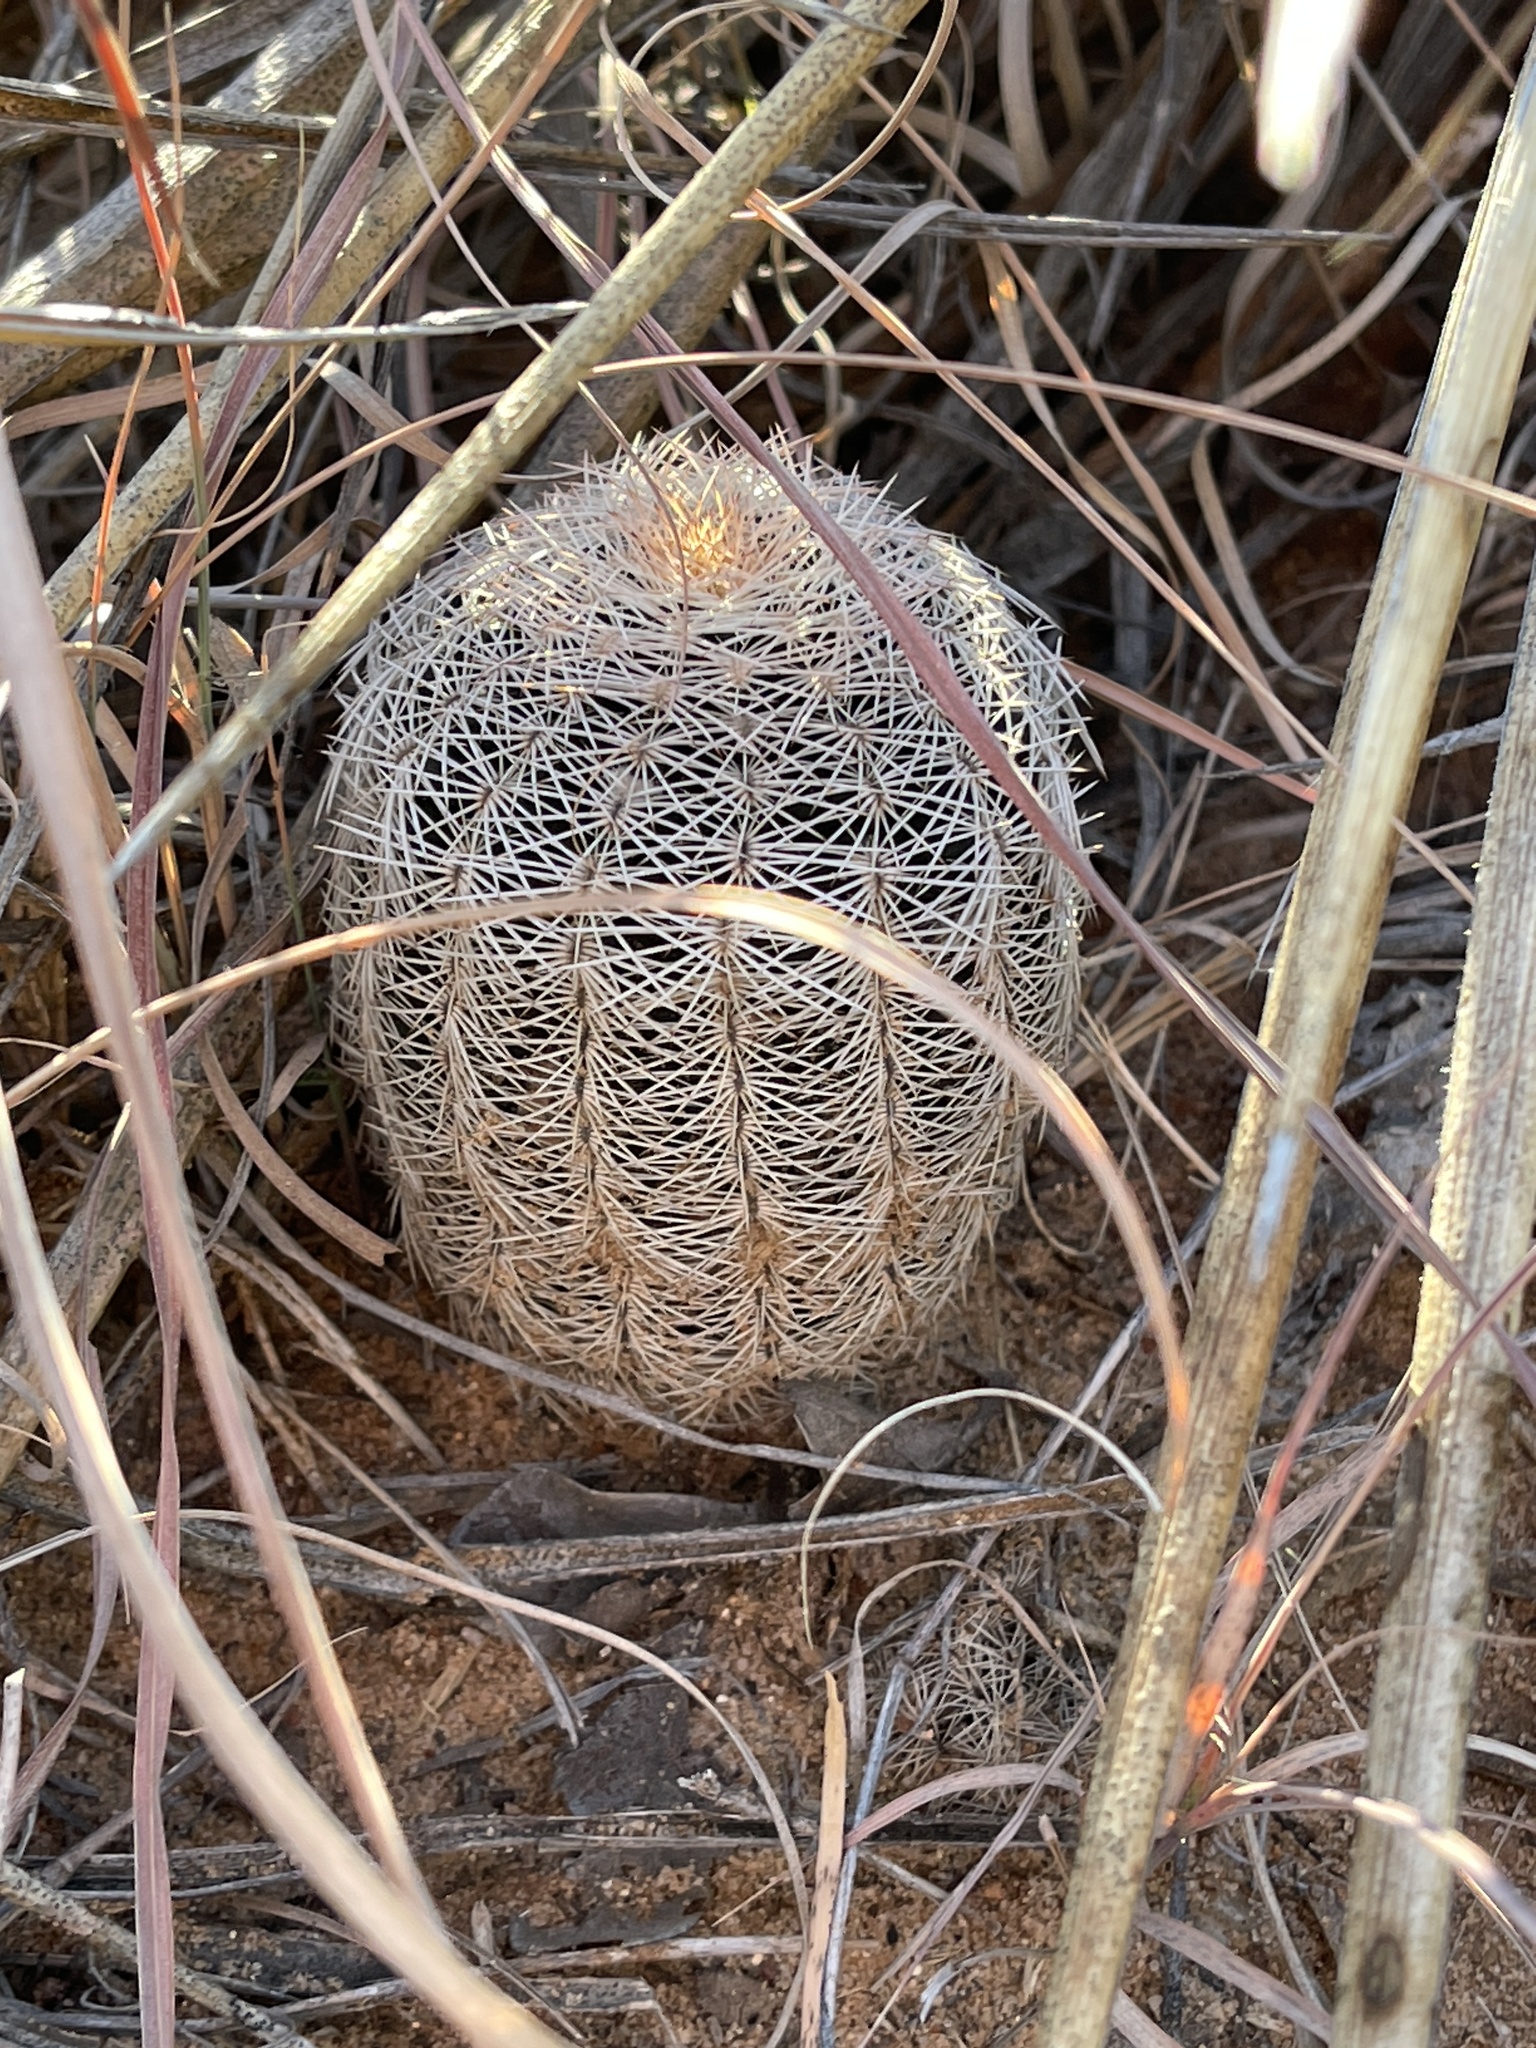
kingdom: Plantae
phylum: Tracheophyta
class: Magnoliopsida
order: Caryophyllales
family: Cactaceae
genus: Echinocereus
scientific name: Echinocereus reichenbachii
